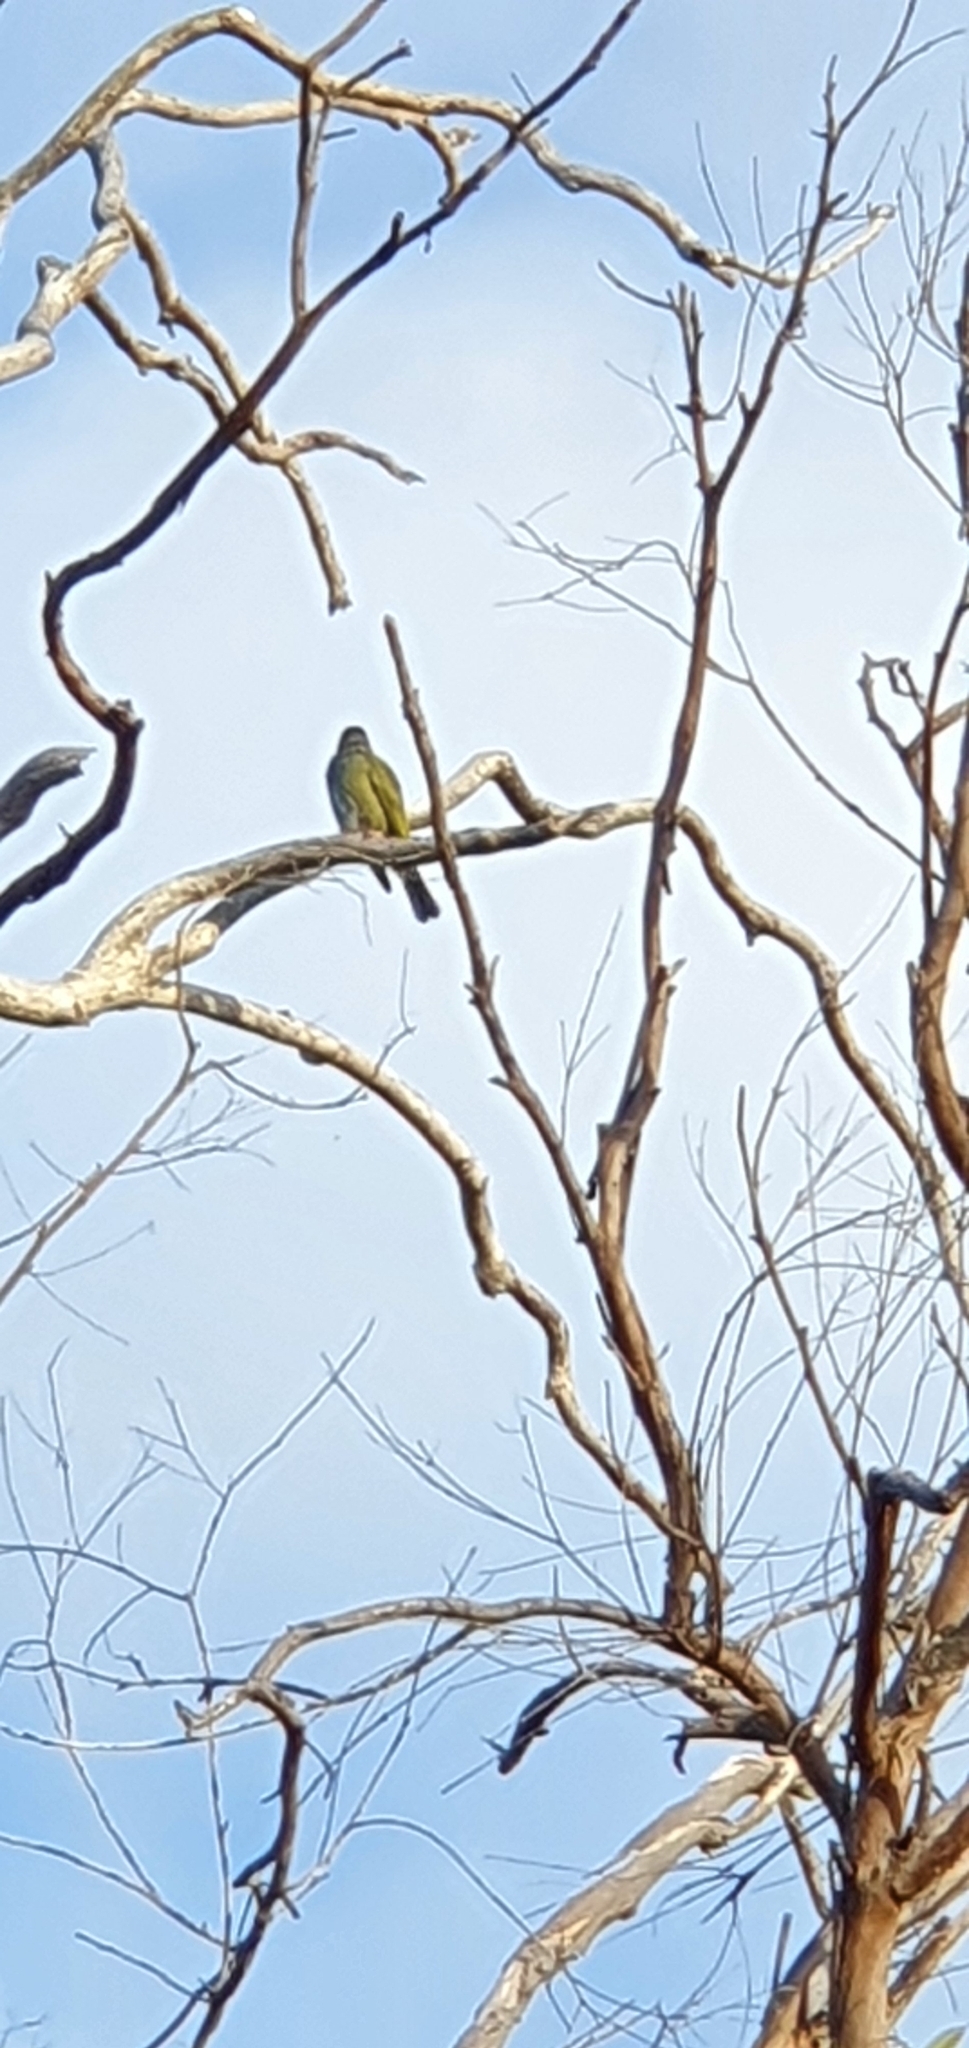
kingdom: Animalia
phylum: Chordata
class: Aves
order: Passeriformes
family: Oriolidae
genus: Sphecotheres
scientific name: Sphecotheres vieilloti
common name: Australasian figbird
